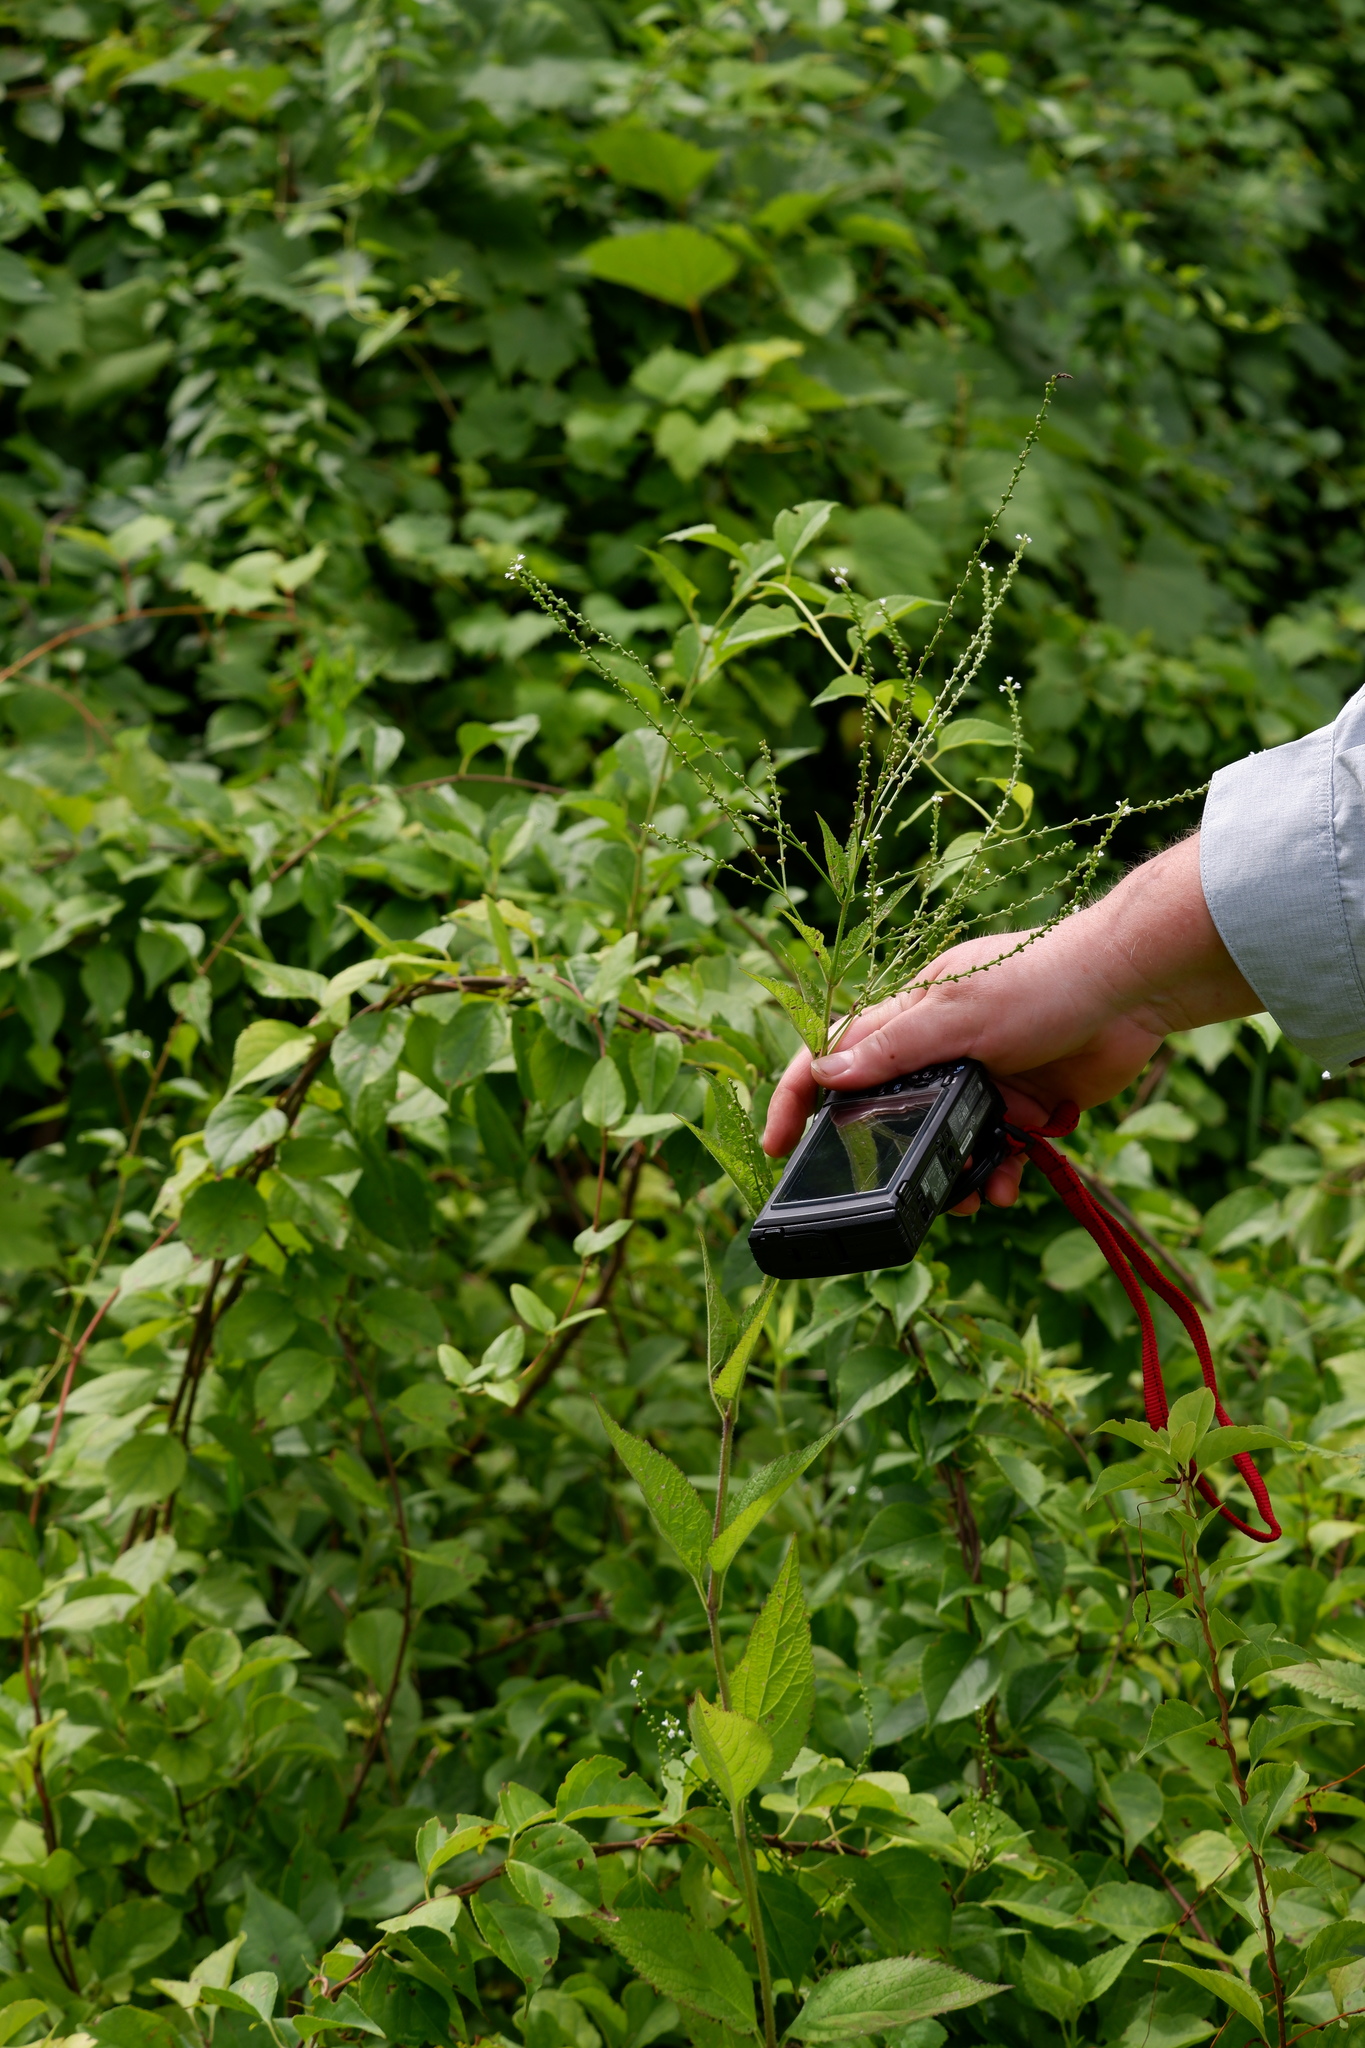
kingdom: Plantae
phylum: Tracheophyta
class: Magnoliopsida
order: Lamiales
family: Verbenaceae
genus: Verbena
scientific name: Verbena urticifolia
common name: Nettle-leaved vervain
